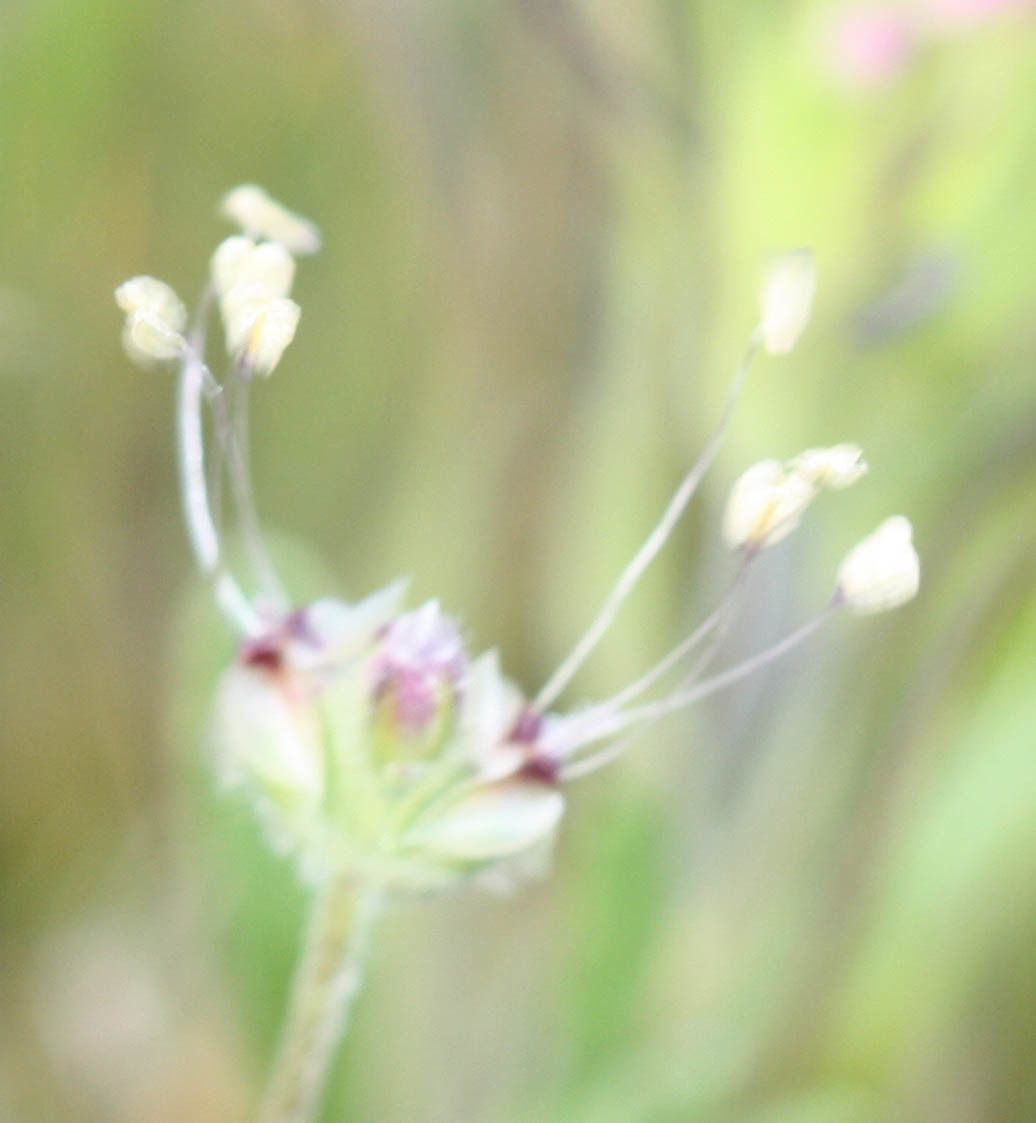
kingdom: Plantae
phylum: Tracheophyta
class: Magnoliopsida
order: Lamiales
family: Plantaginaceae
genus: Plantago
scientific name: Plantago erecta
